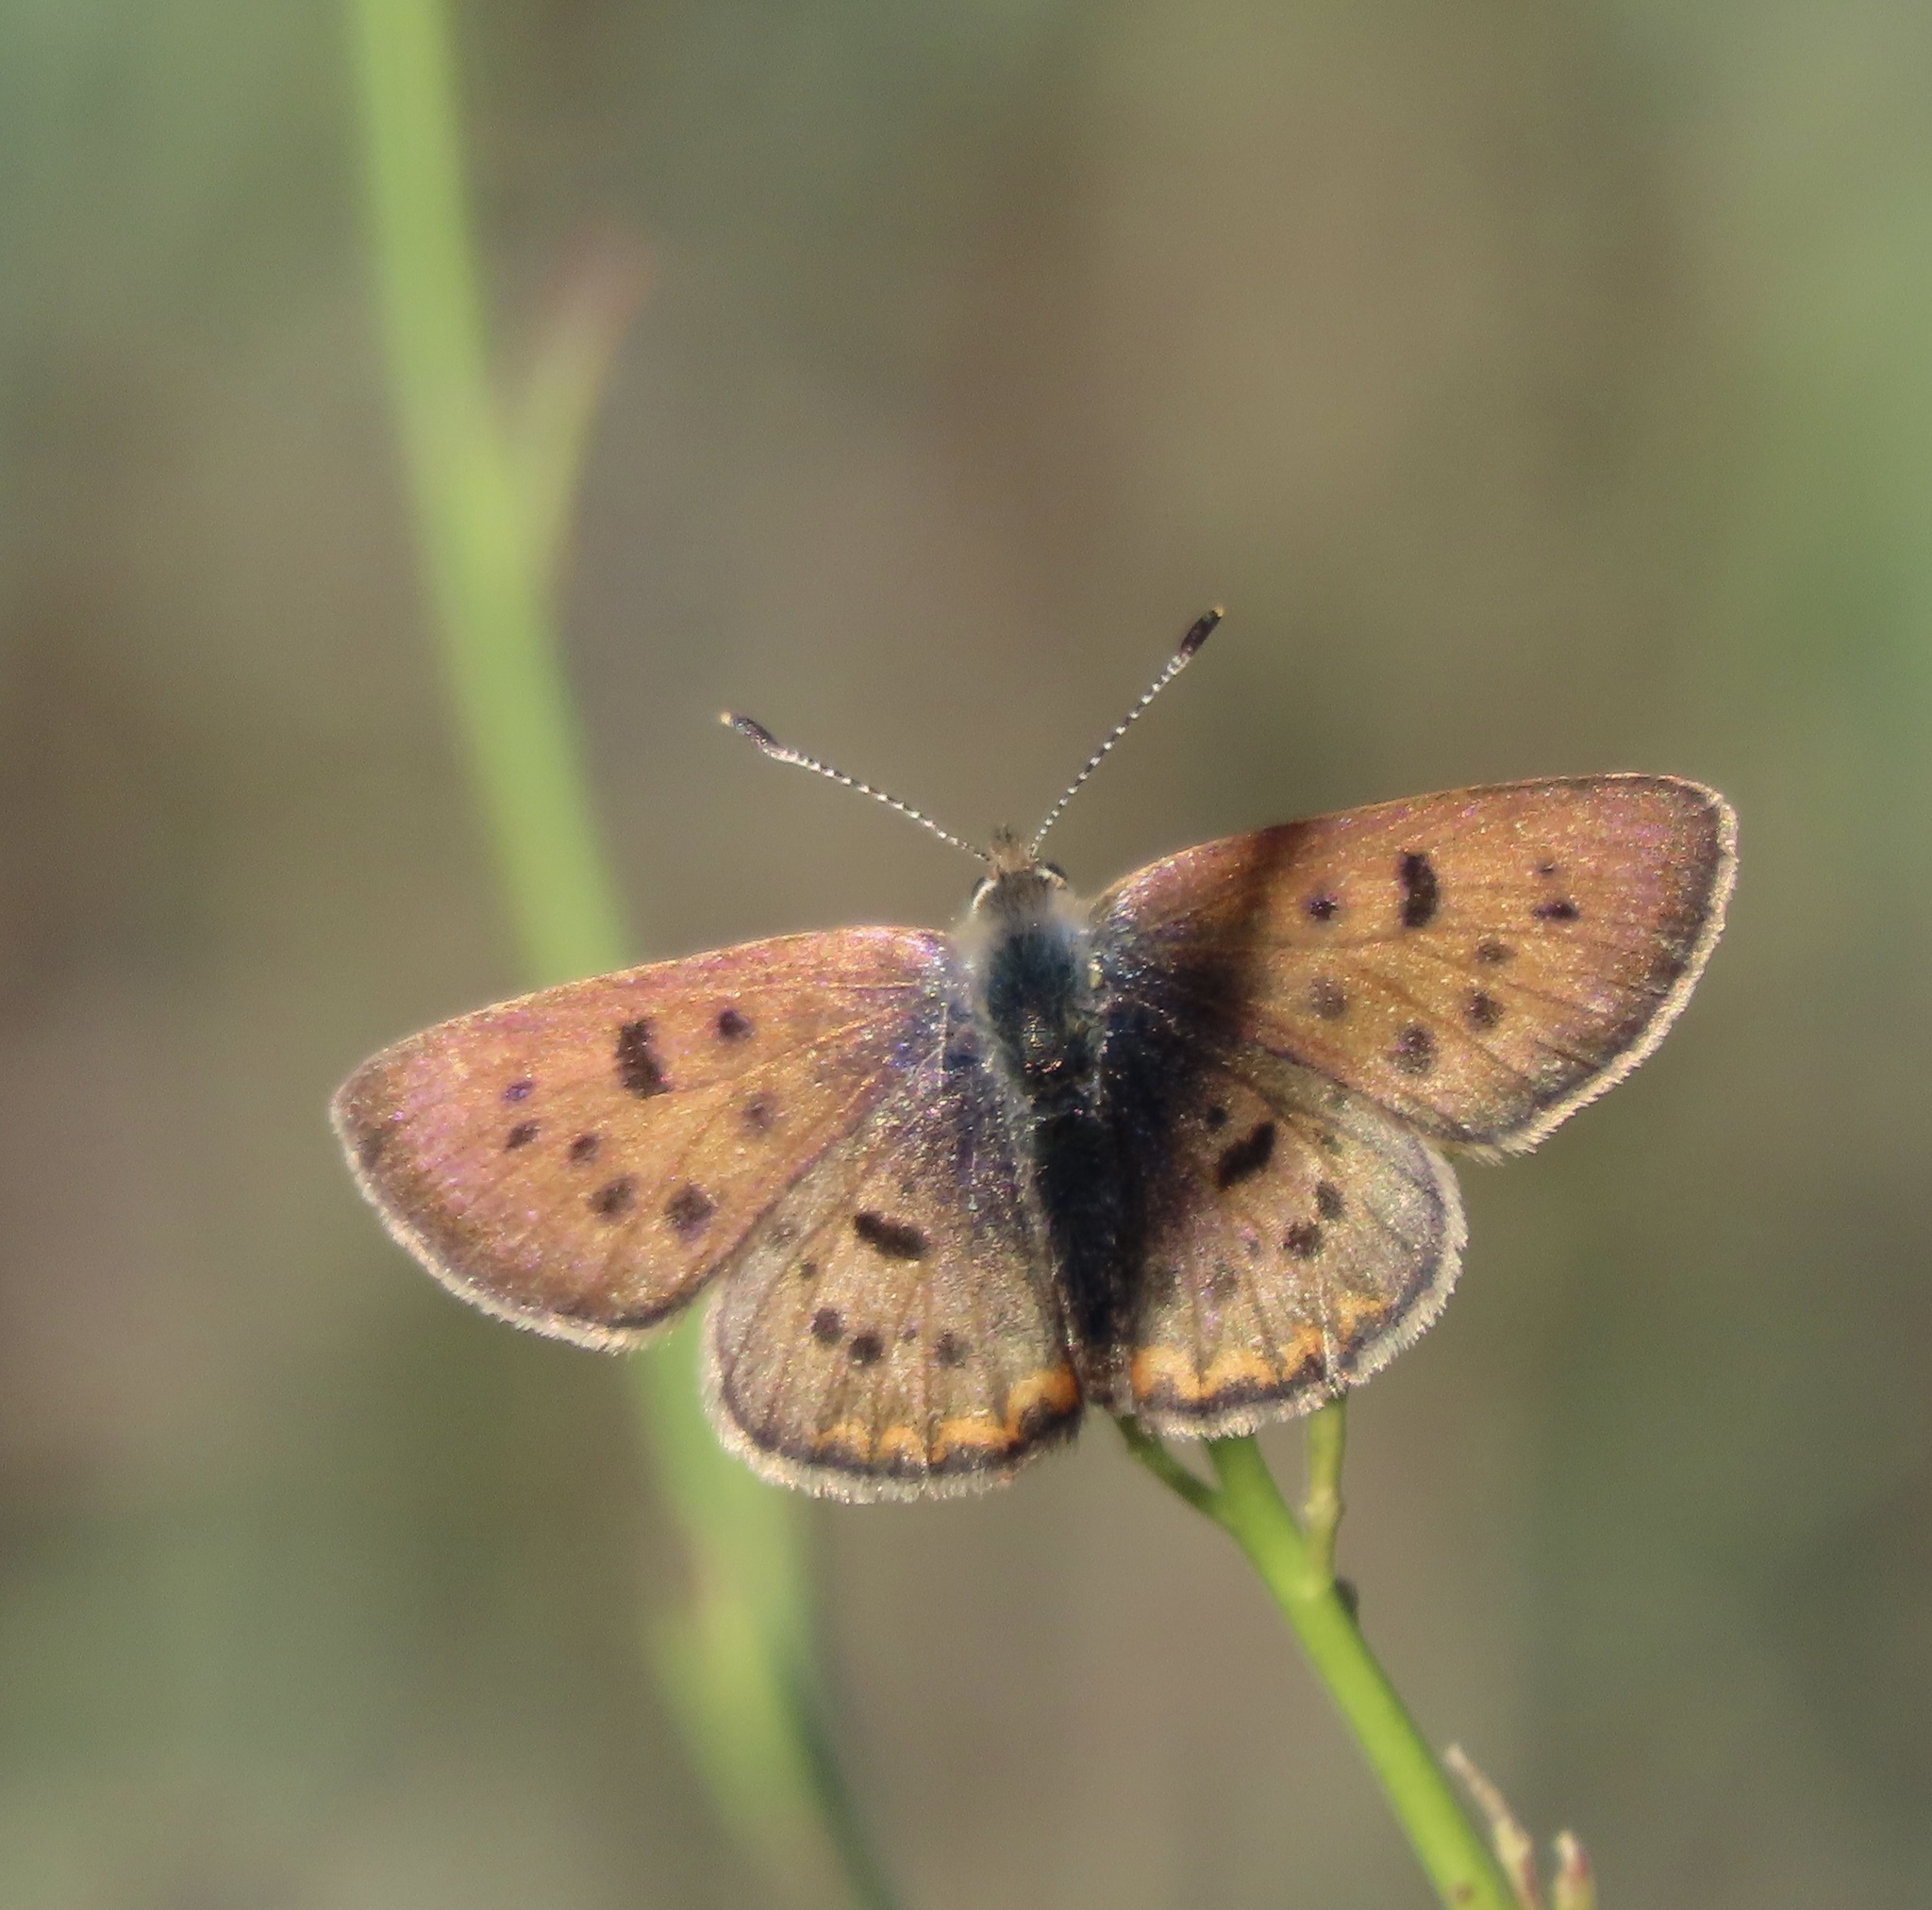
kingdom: Animalia
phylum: Arthropoda
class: Insecta
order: Lepidoptera
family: Lycaenidae
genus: Tharsalea
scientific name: Tharsalea helloides
